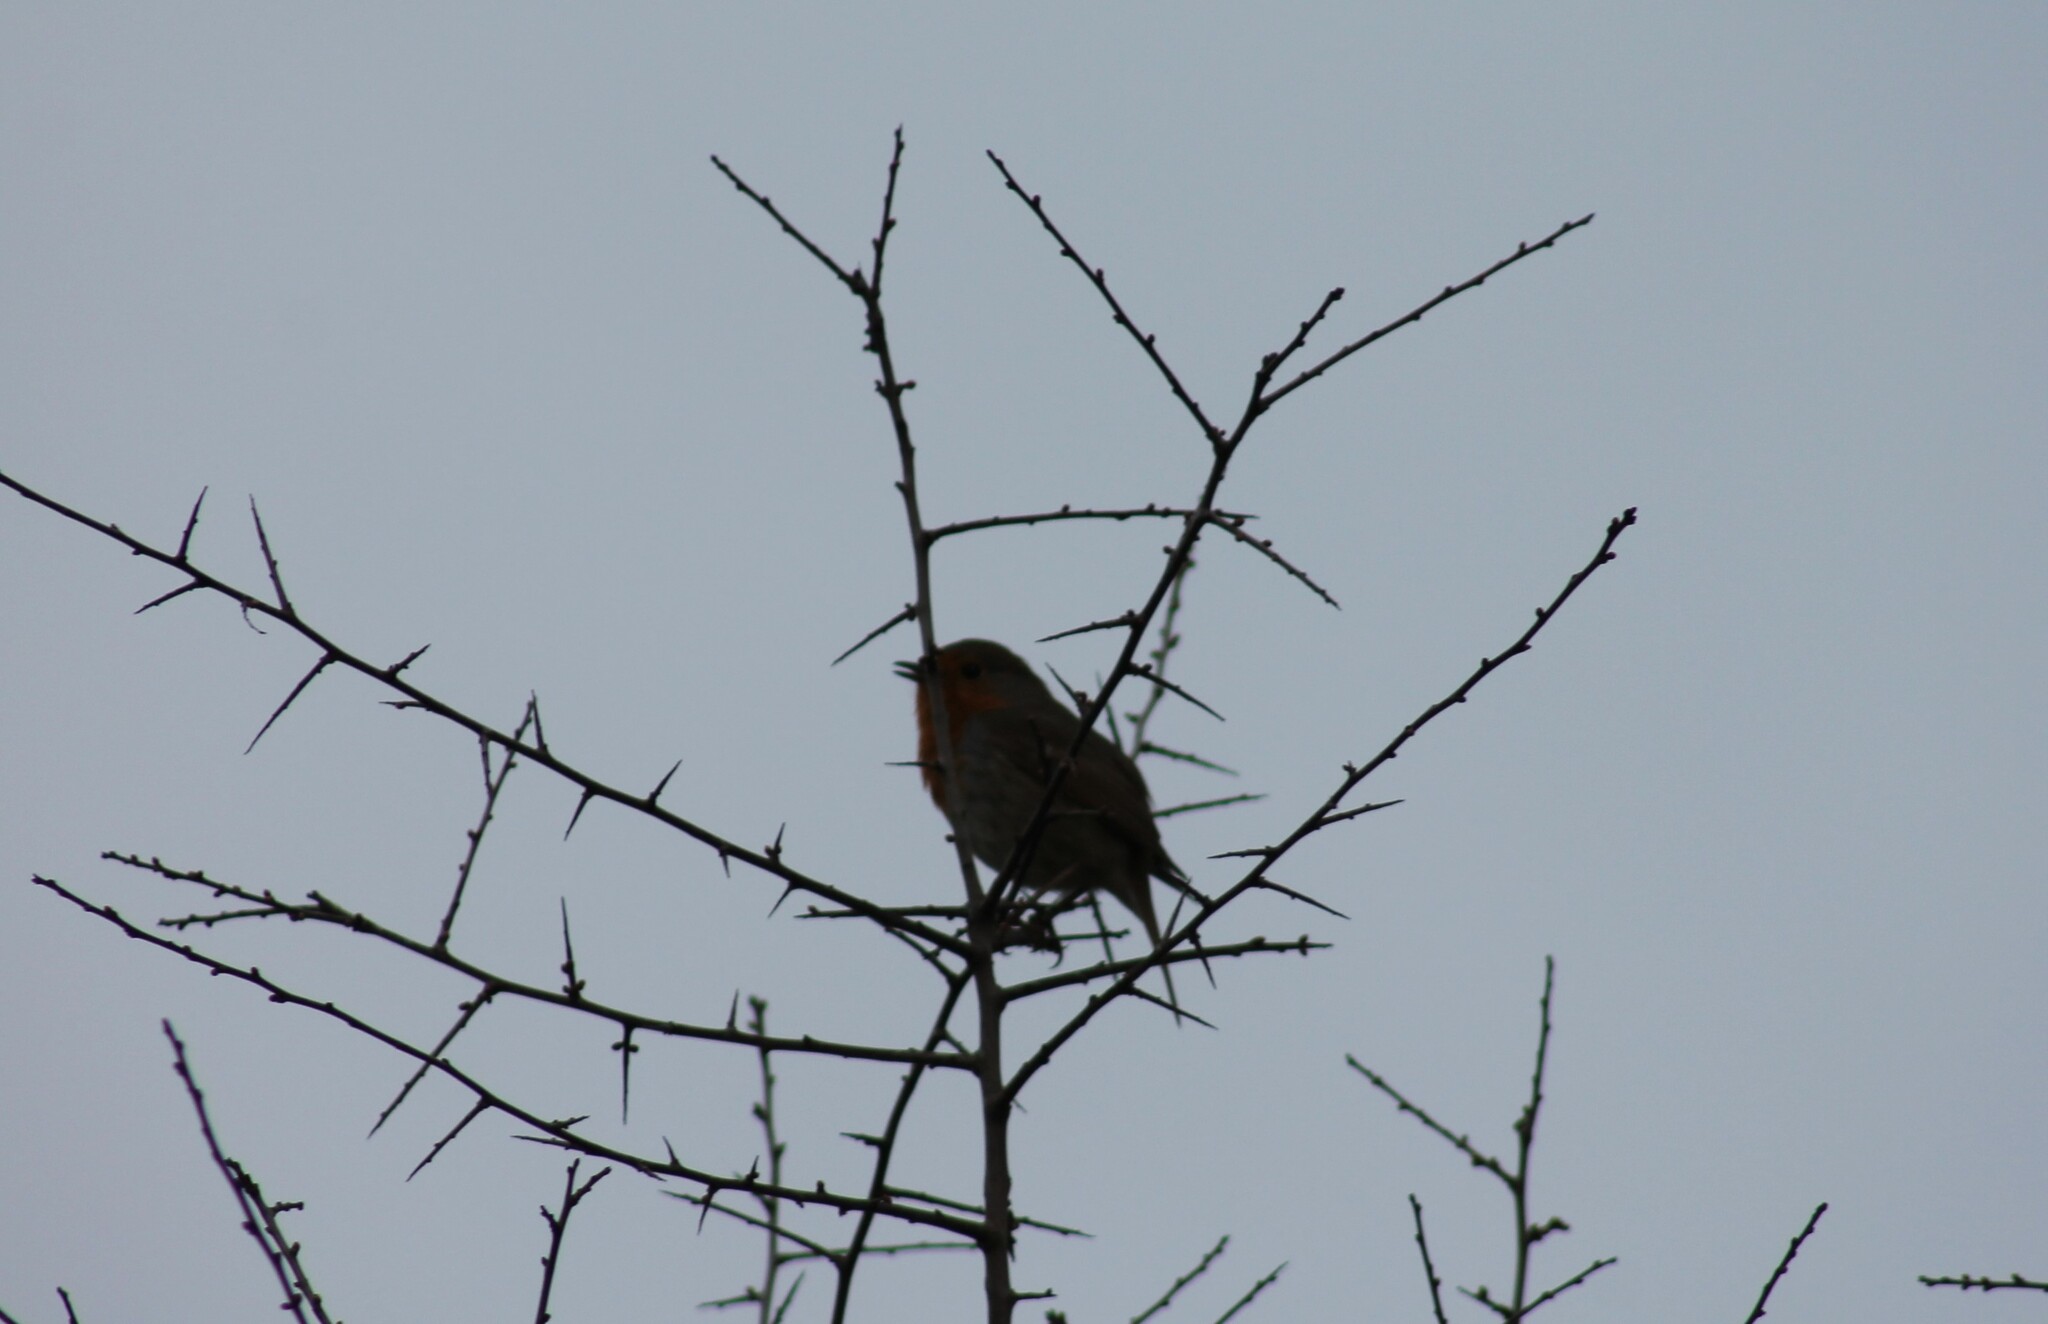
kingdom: Animalia
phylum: Chordata
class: Aves
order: Passeriformes
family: Muscicapidae
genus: Erithacus
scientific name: Erithacus rubecula
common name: European robin
